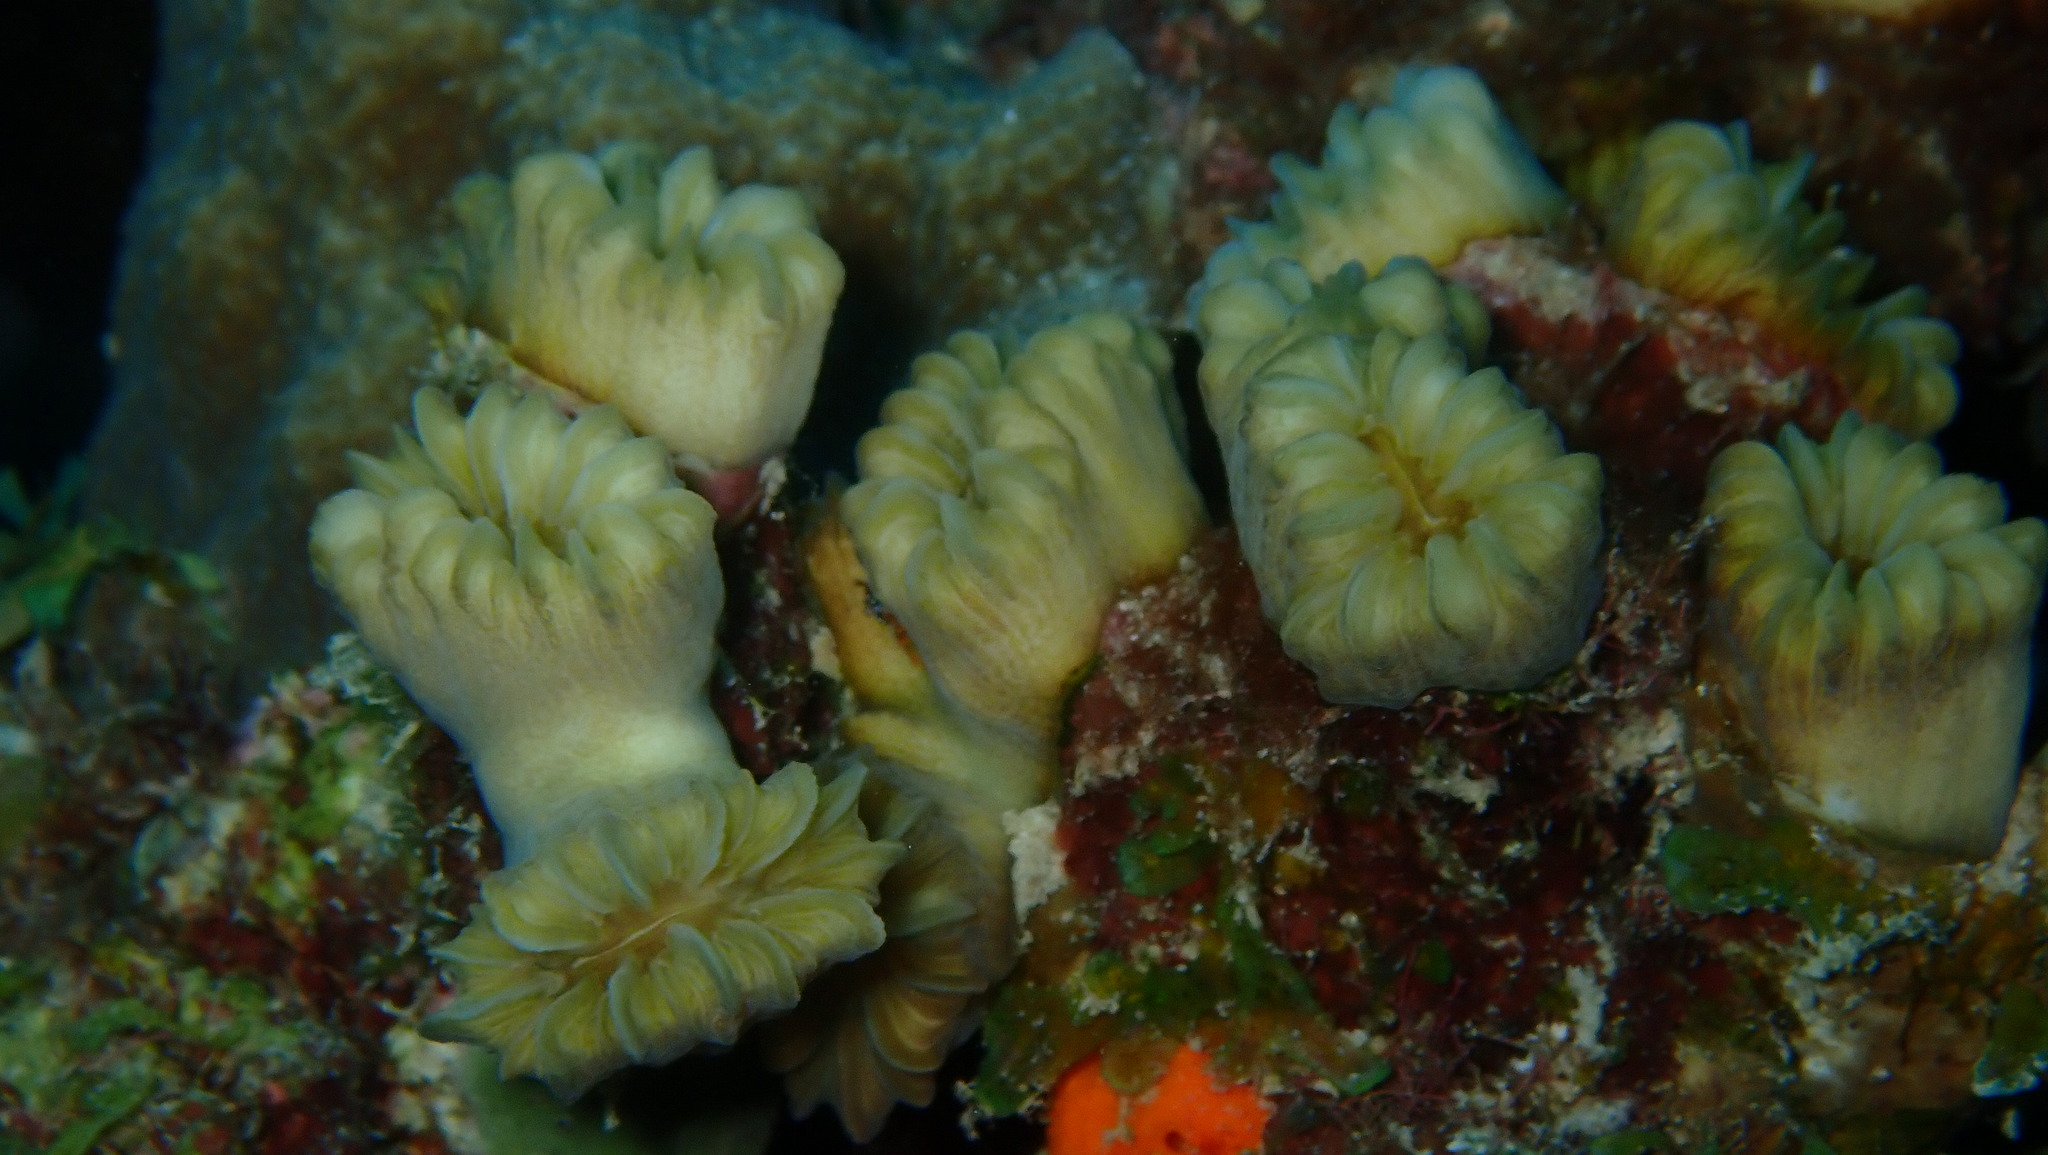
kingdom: Animalia
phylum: Cnidaria
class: Anthozoa
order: Scleractinia
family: Meandrinidae
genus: Eusmilia
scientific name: Eusmilia fastigiata
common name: Smooth flower coral
